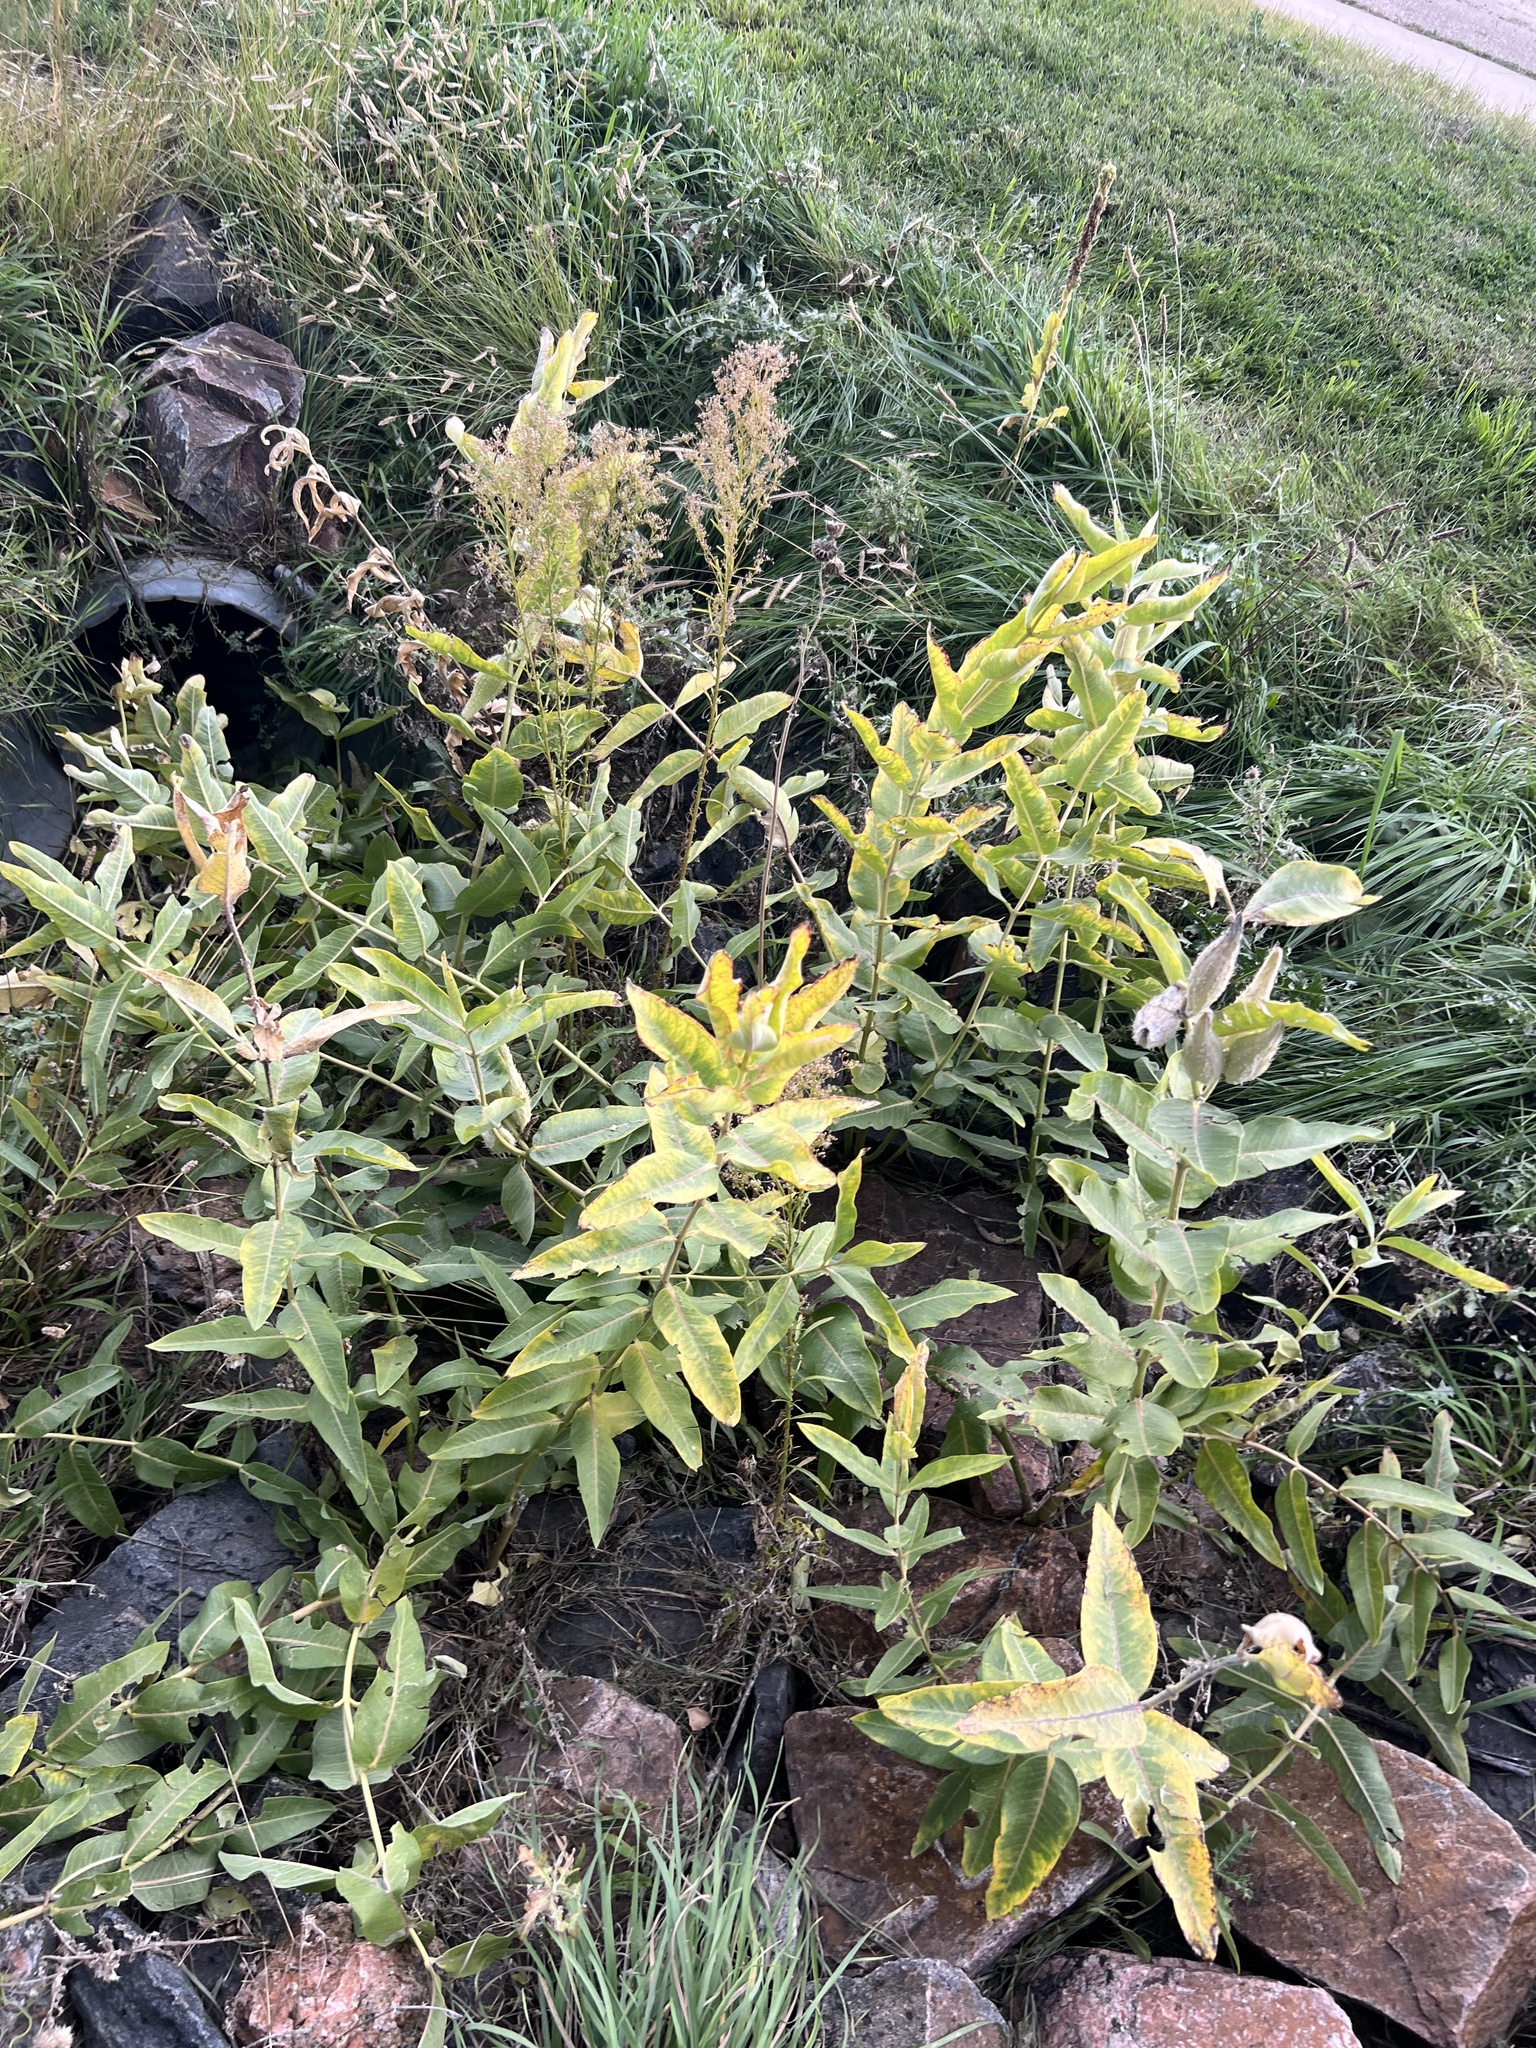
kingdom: Plantae
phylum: Tracheophyta
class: Magnoliopsida
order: Gentianales
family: Apocynaceae
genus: Asclepias
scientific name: Asclepias speciosa
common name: Showy milkweed
